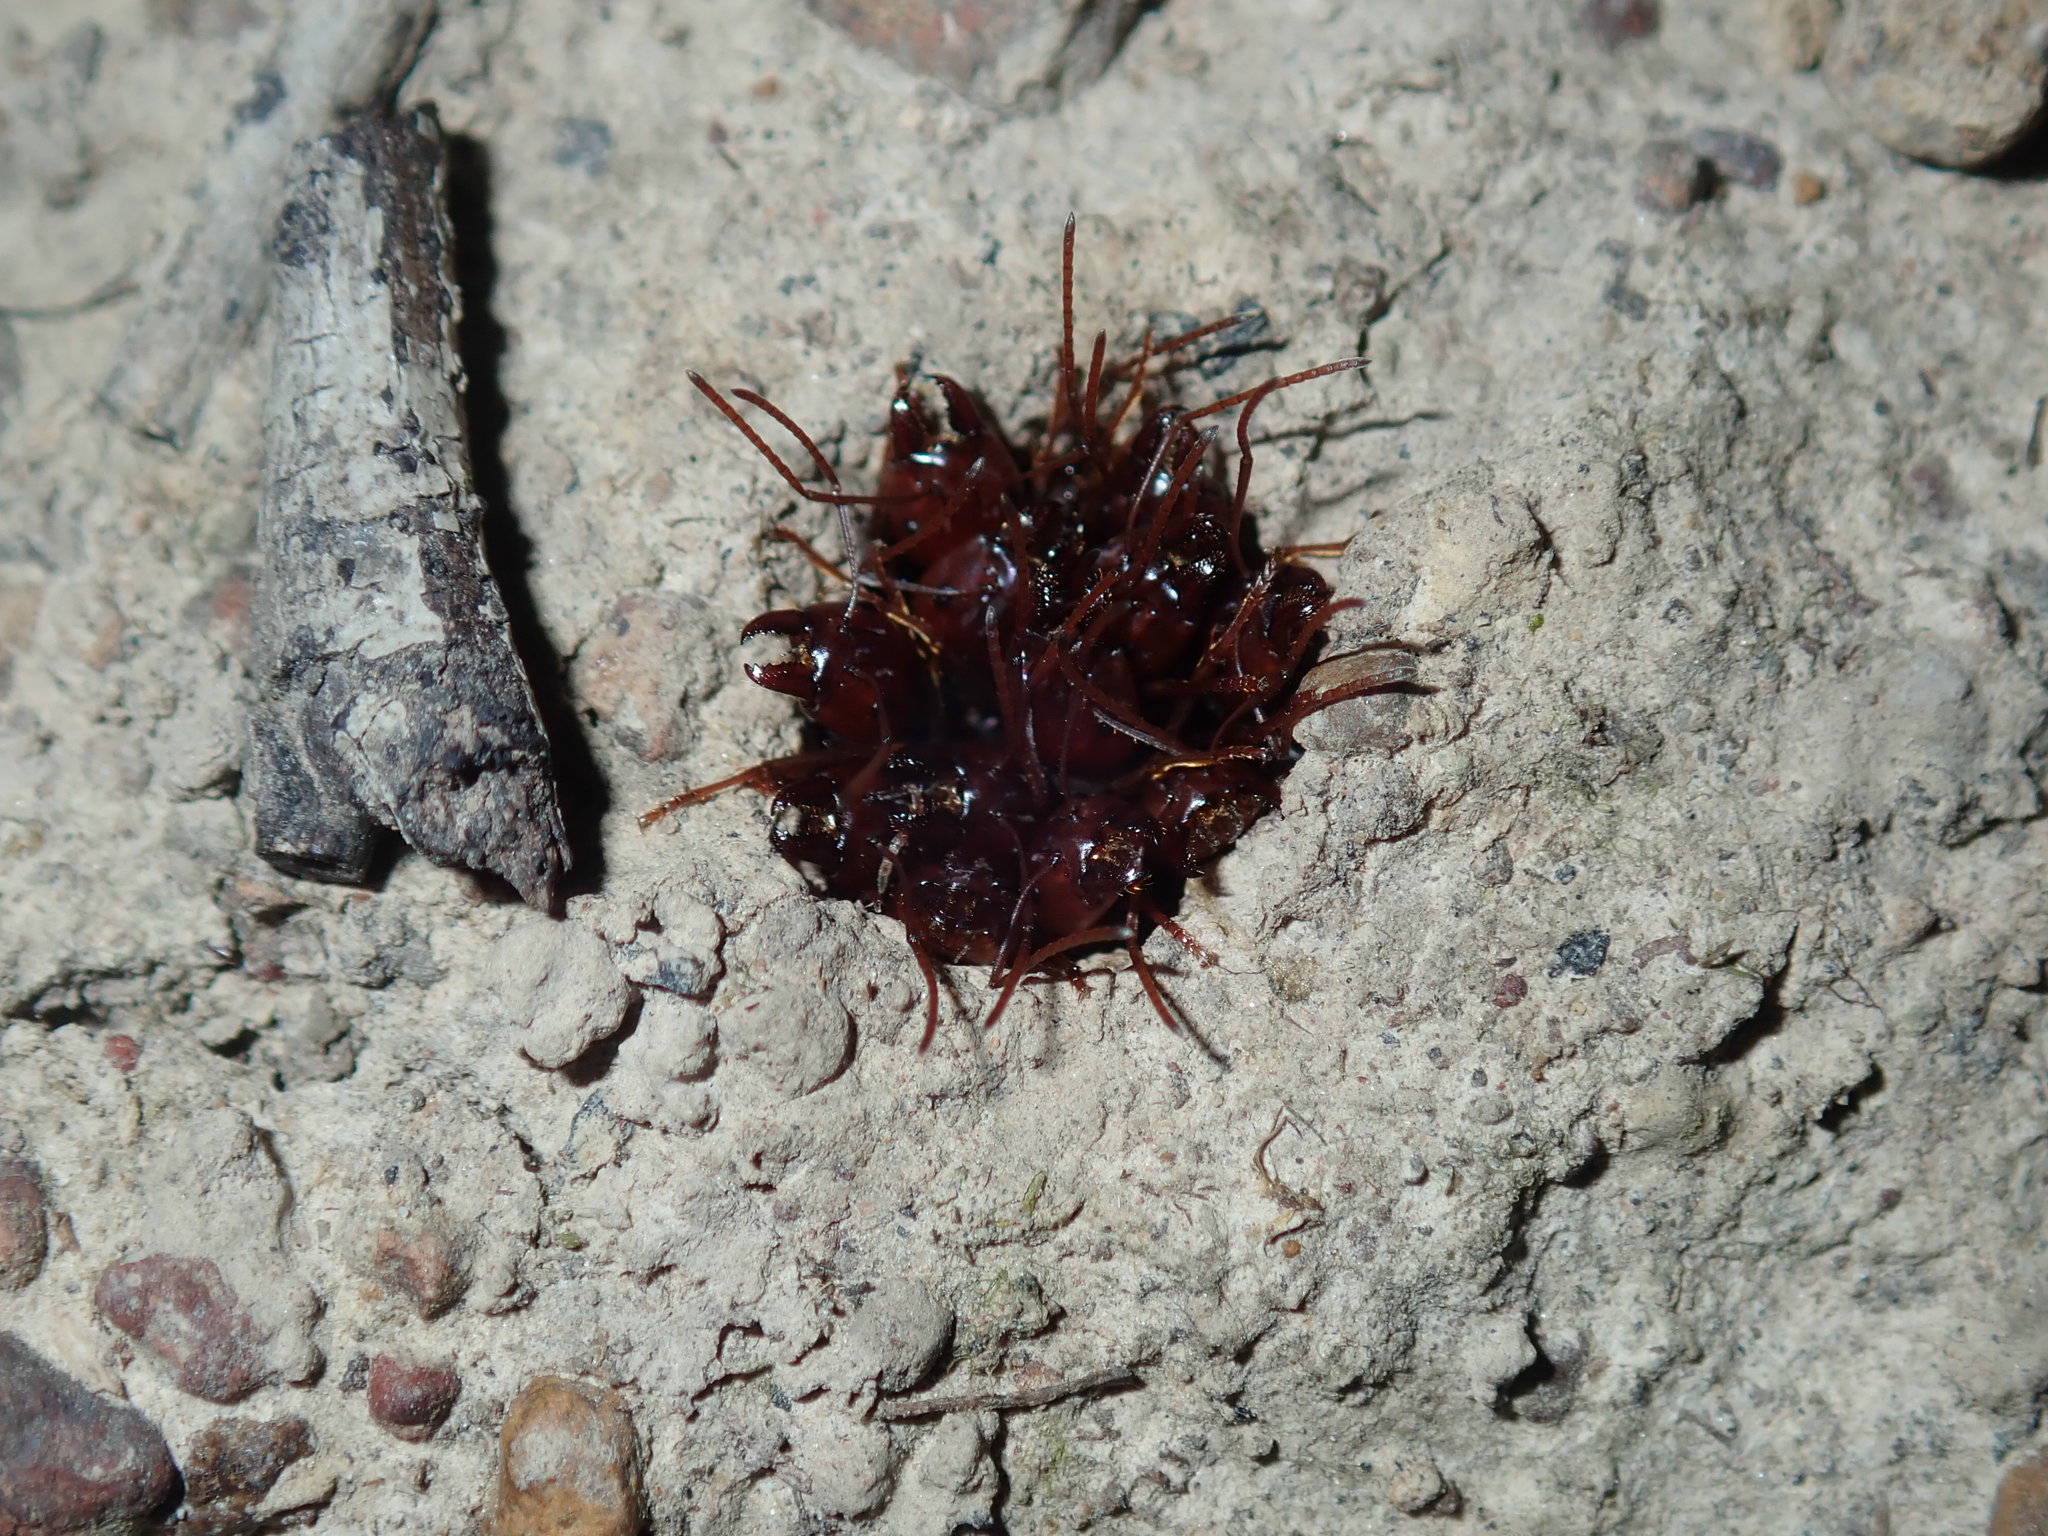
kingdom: Animalia
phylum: Arthropoda
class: Insecta
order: Hymenoptera
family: Formicidae
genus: Iridomyrmex
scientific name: Iridomyrmex purpureus
